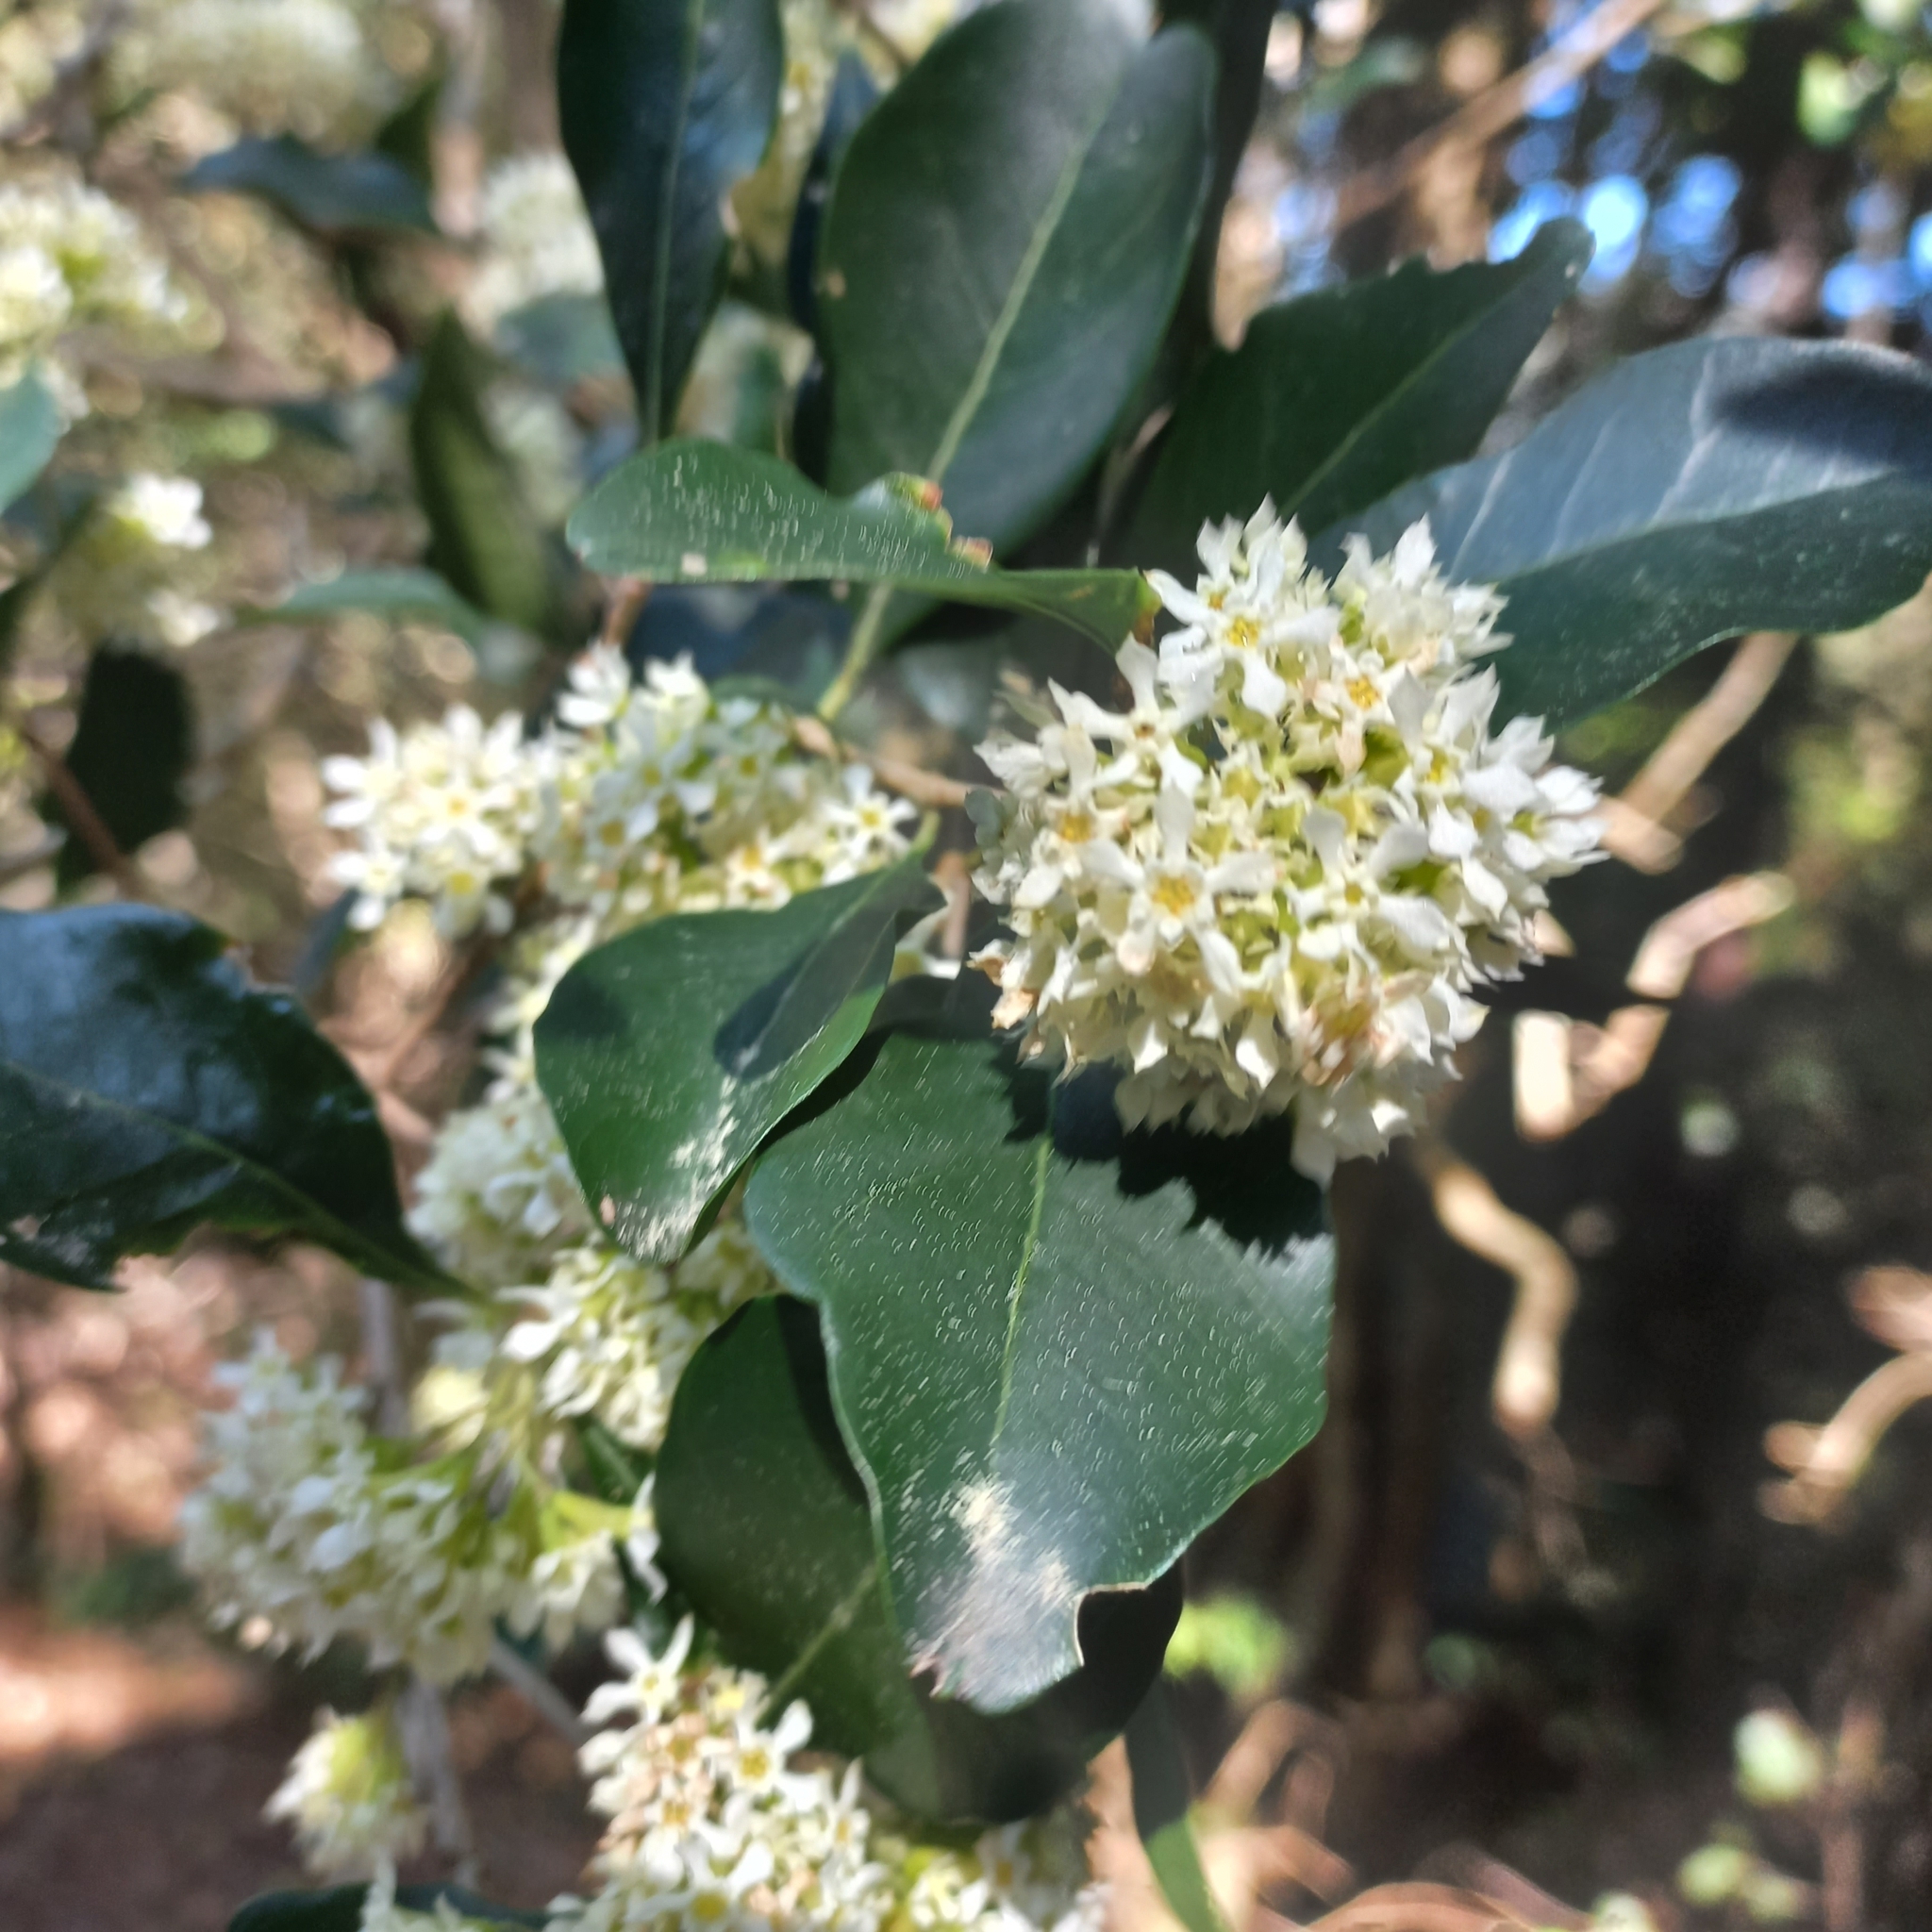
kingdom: Plantae
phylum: Tracheophyta
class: Magnoliopsida
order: Myrtales
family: Penaeaceae
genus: Olinia
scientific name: Olinia ventosa
